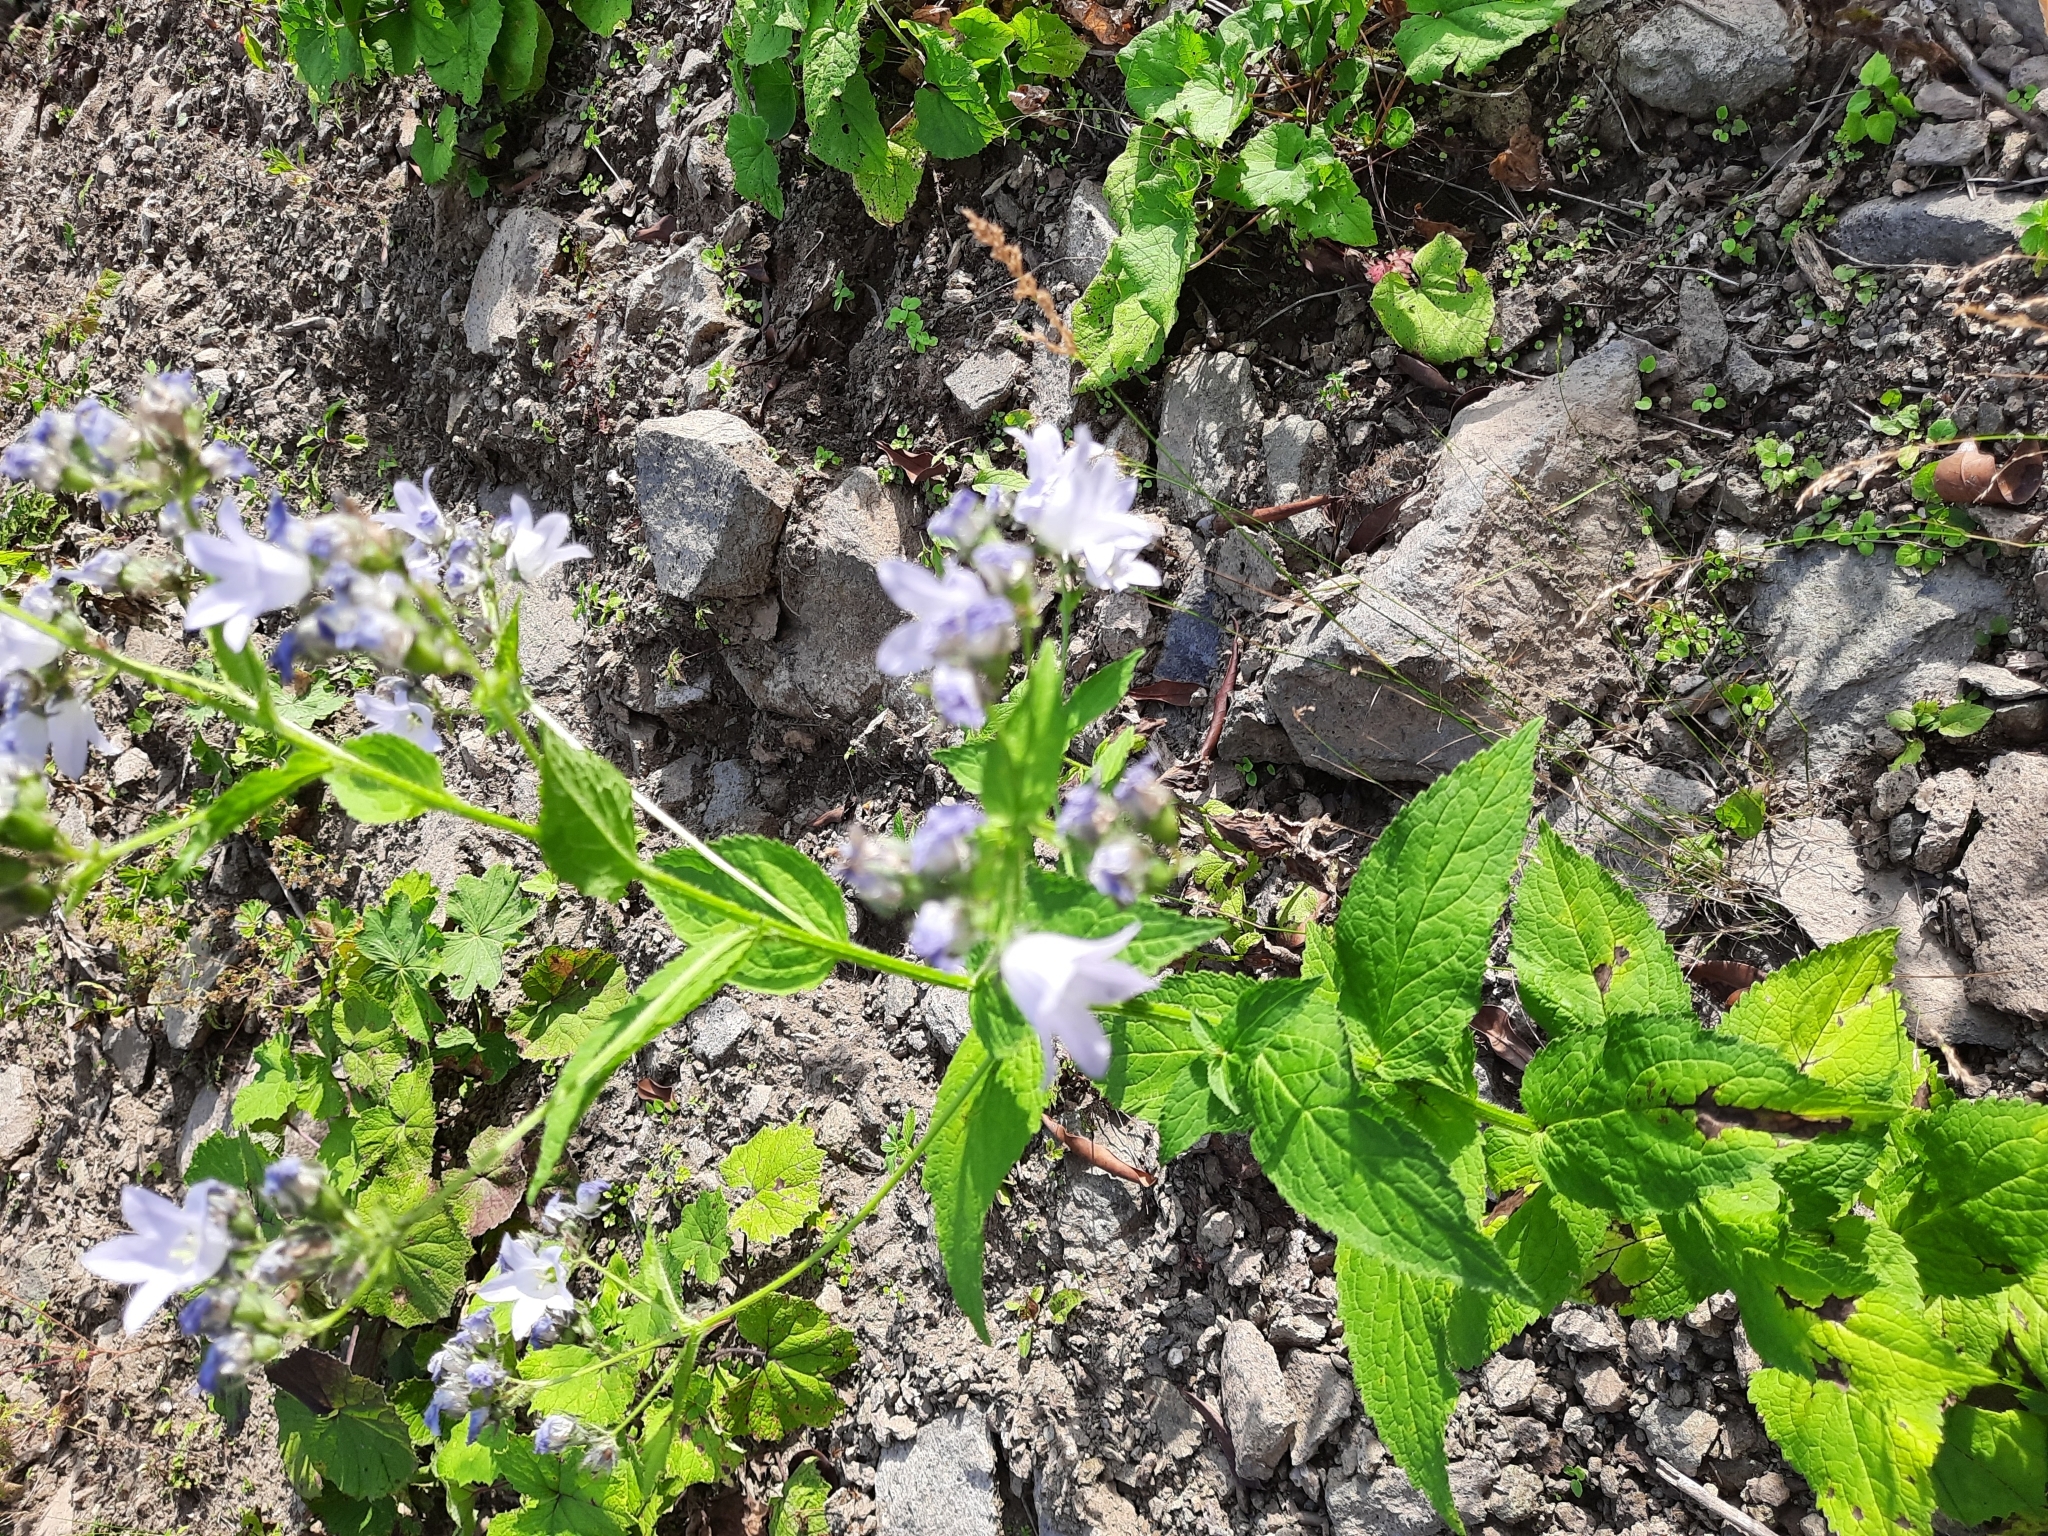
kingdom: Plantae
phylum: Tracheophyta
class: Magnoliopsida
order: Asterales
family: Campanulaceae
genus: Campanula
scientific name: Campanula lactiflora
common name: Milky bellflower
